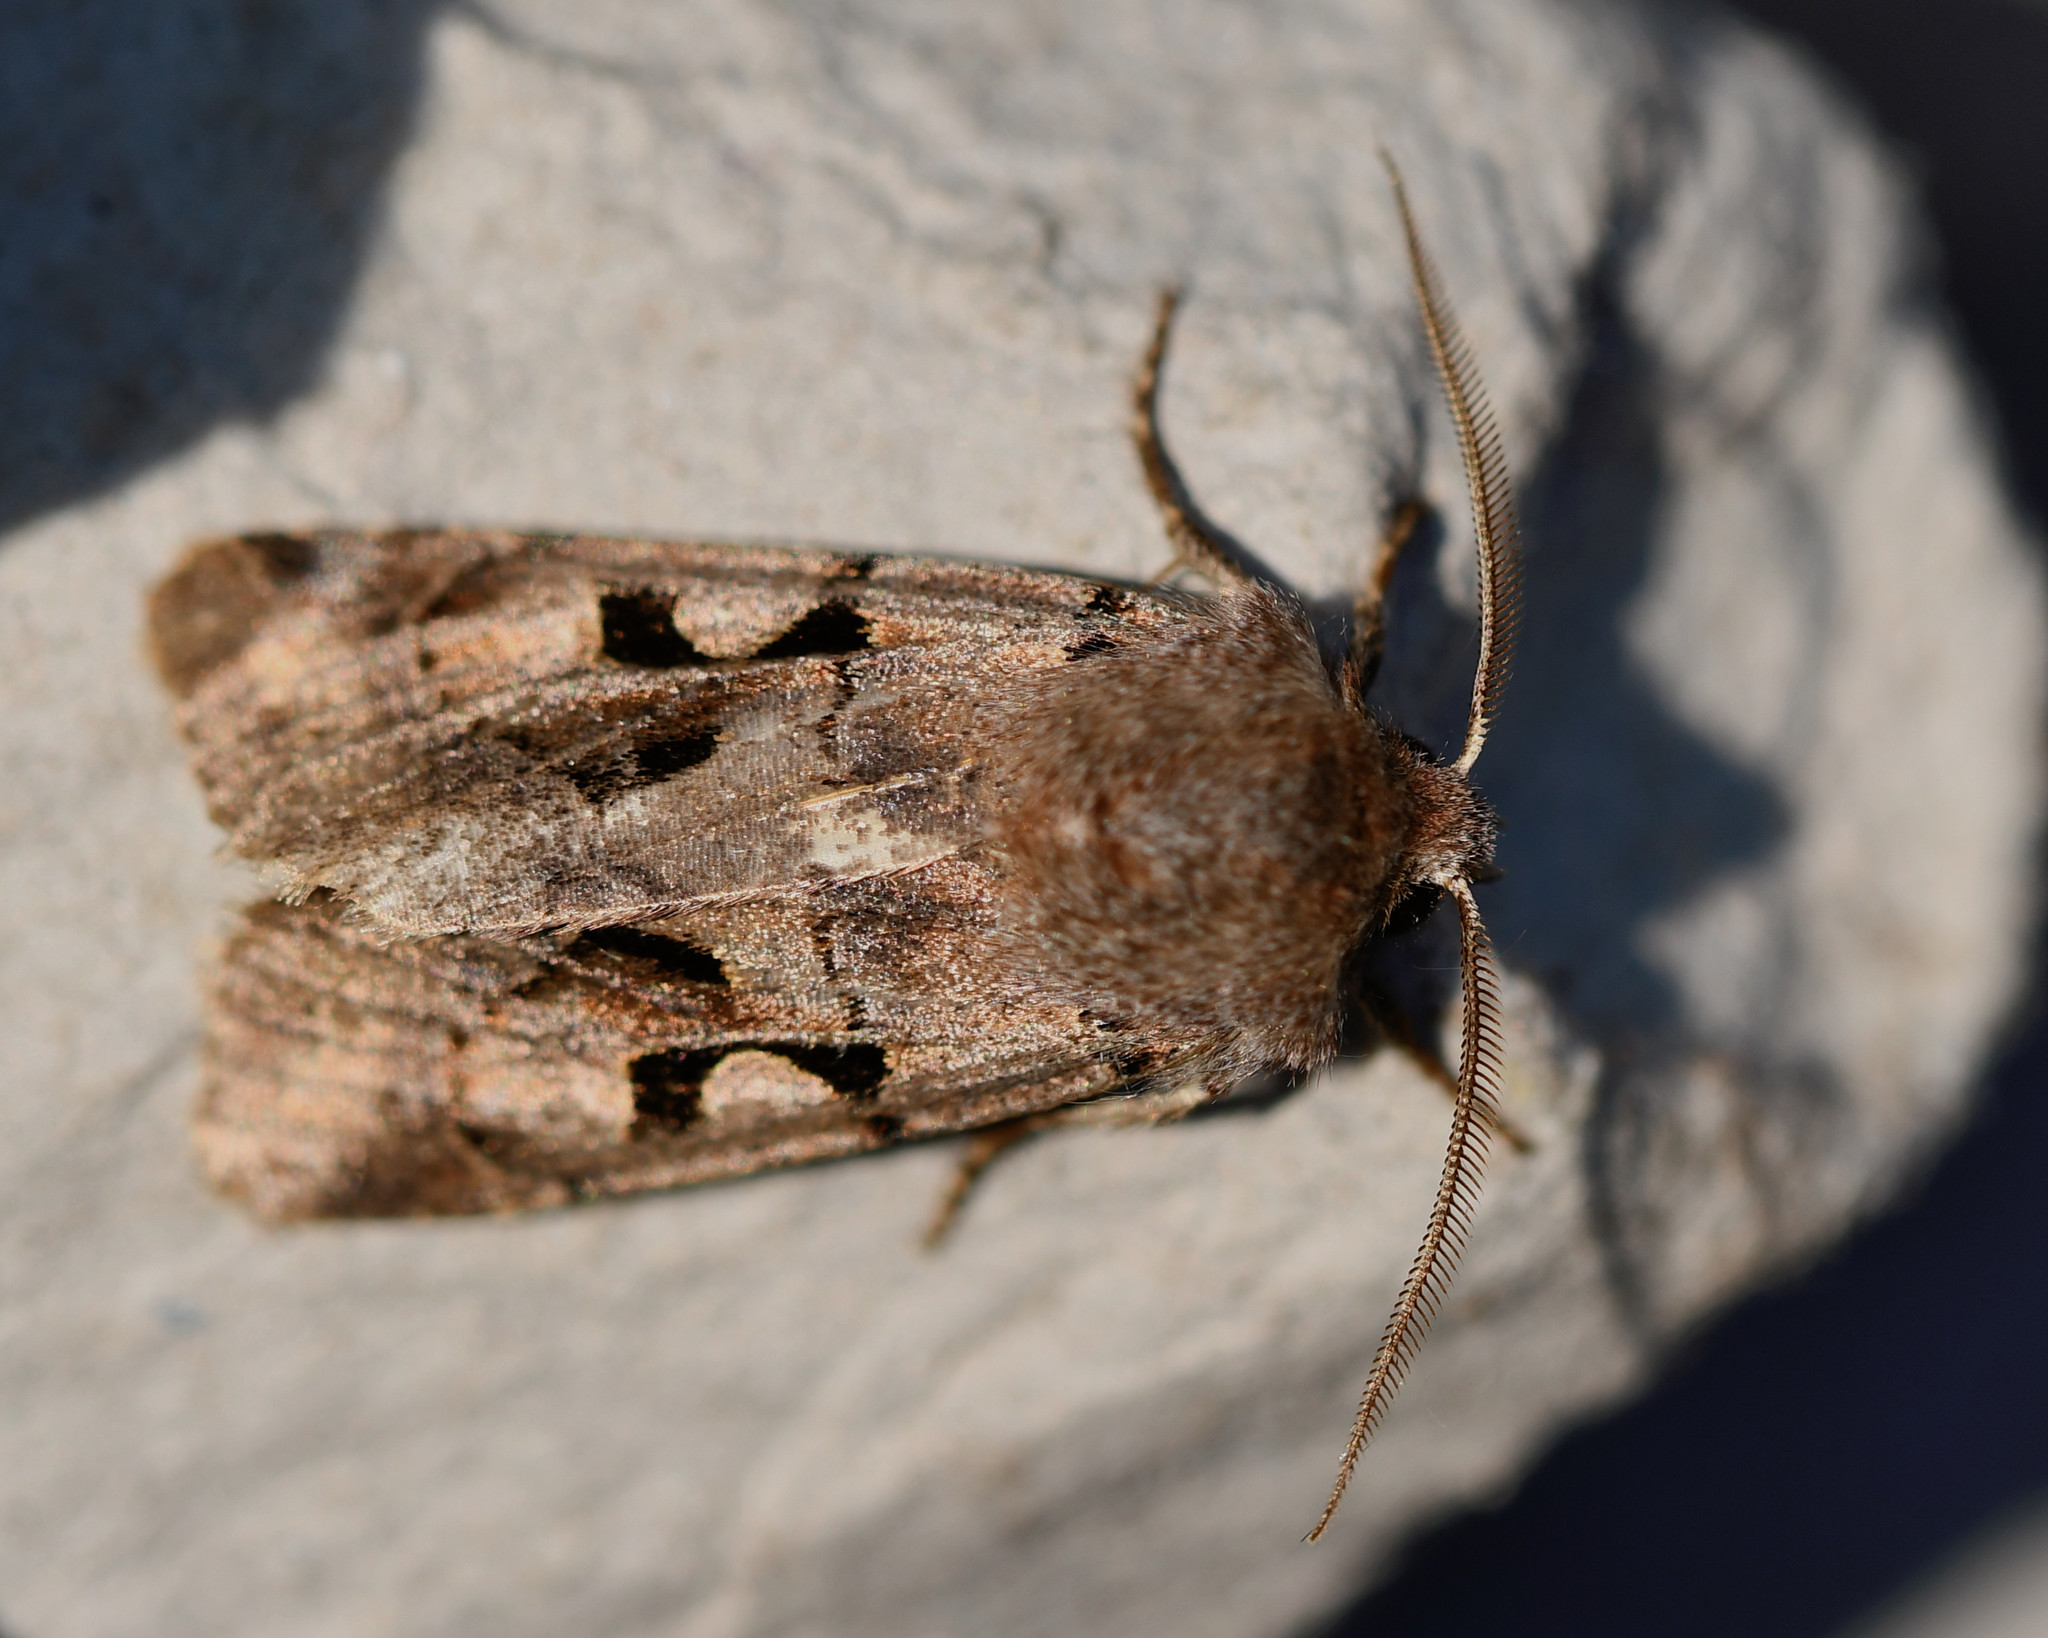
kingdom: Animalia
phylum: Arthropoda
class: Insecta
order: Lepidoptera
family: Noctuidae
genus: Orthosia
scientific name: Orthosia gothica
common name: Hebrew character
